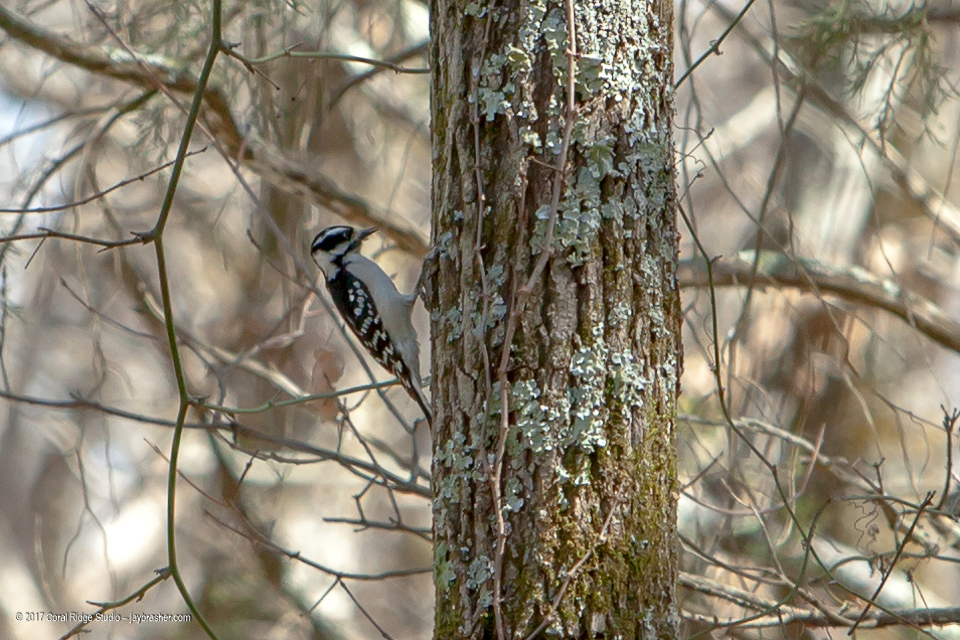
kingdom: Animalia
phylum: Chordata
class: Aves
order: Piciformes
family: Picidae
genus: Dryobates
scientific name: Dryobates pubescens
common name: Downy woodpecker
